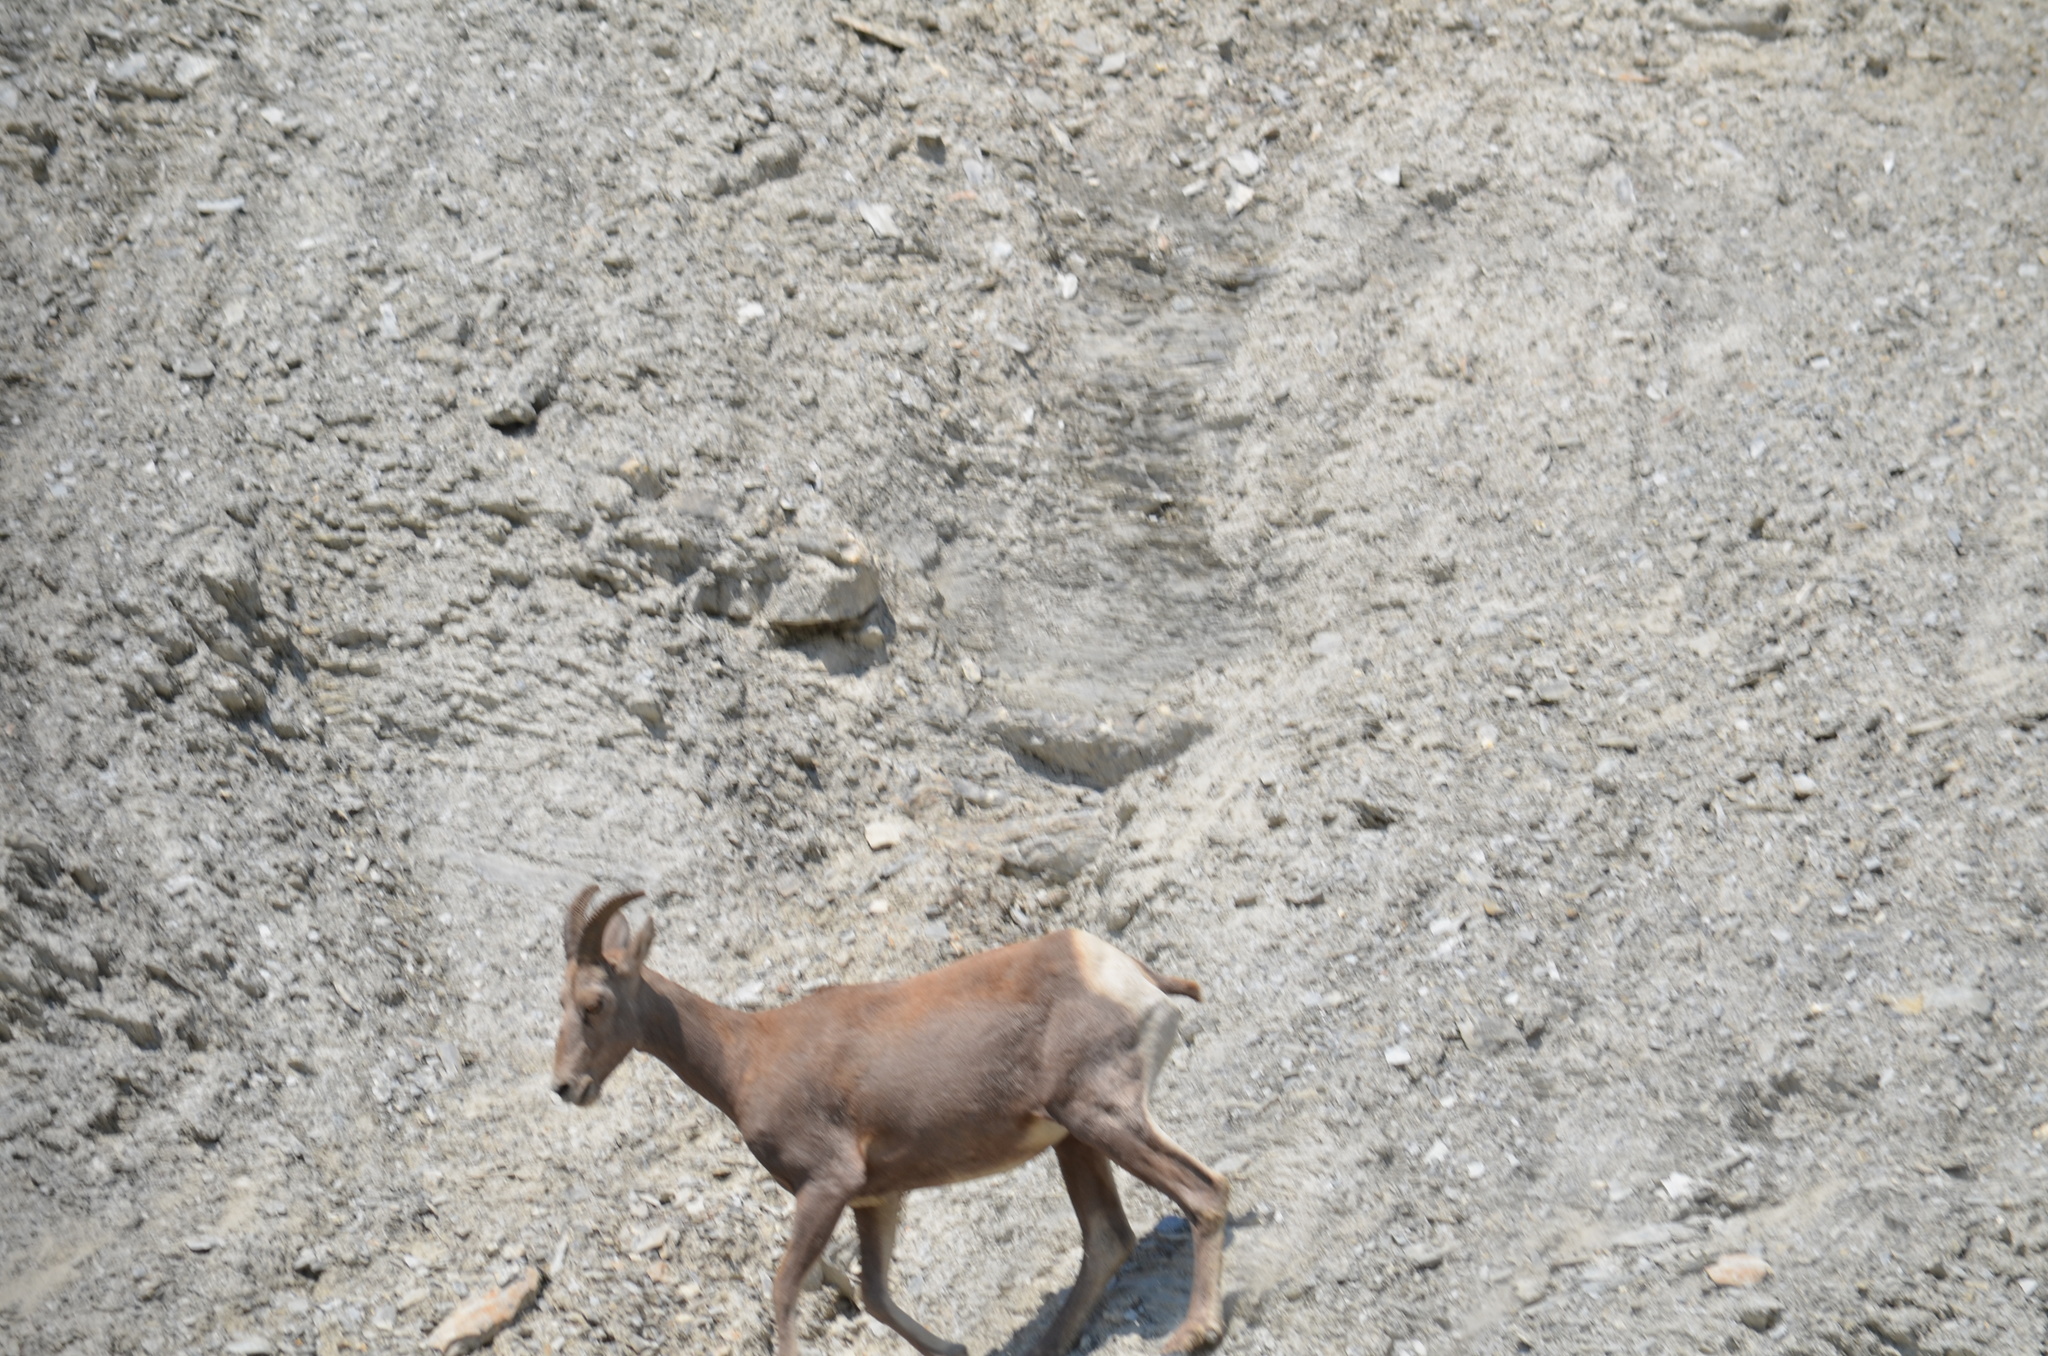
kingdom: Animalia
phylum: Chordata
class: Mammalia
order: Artiodactyla
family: Bovidae
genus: Ovis
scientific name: Ovis canadensis
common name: Bighorn sheep
